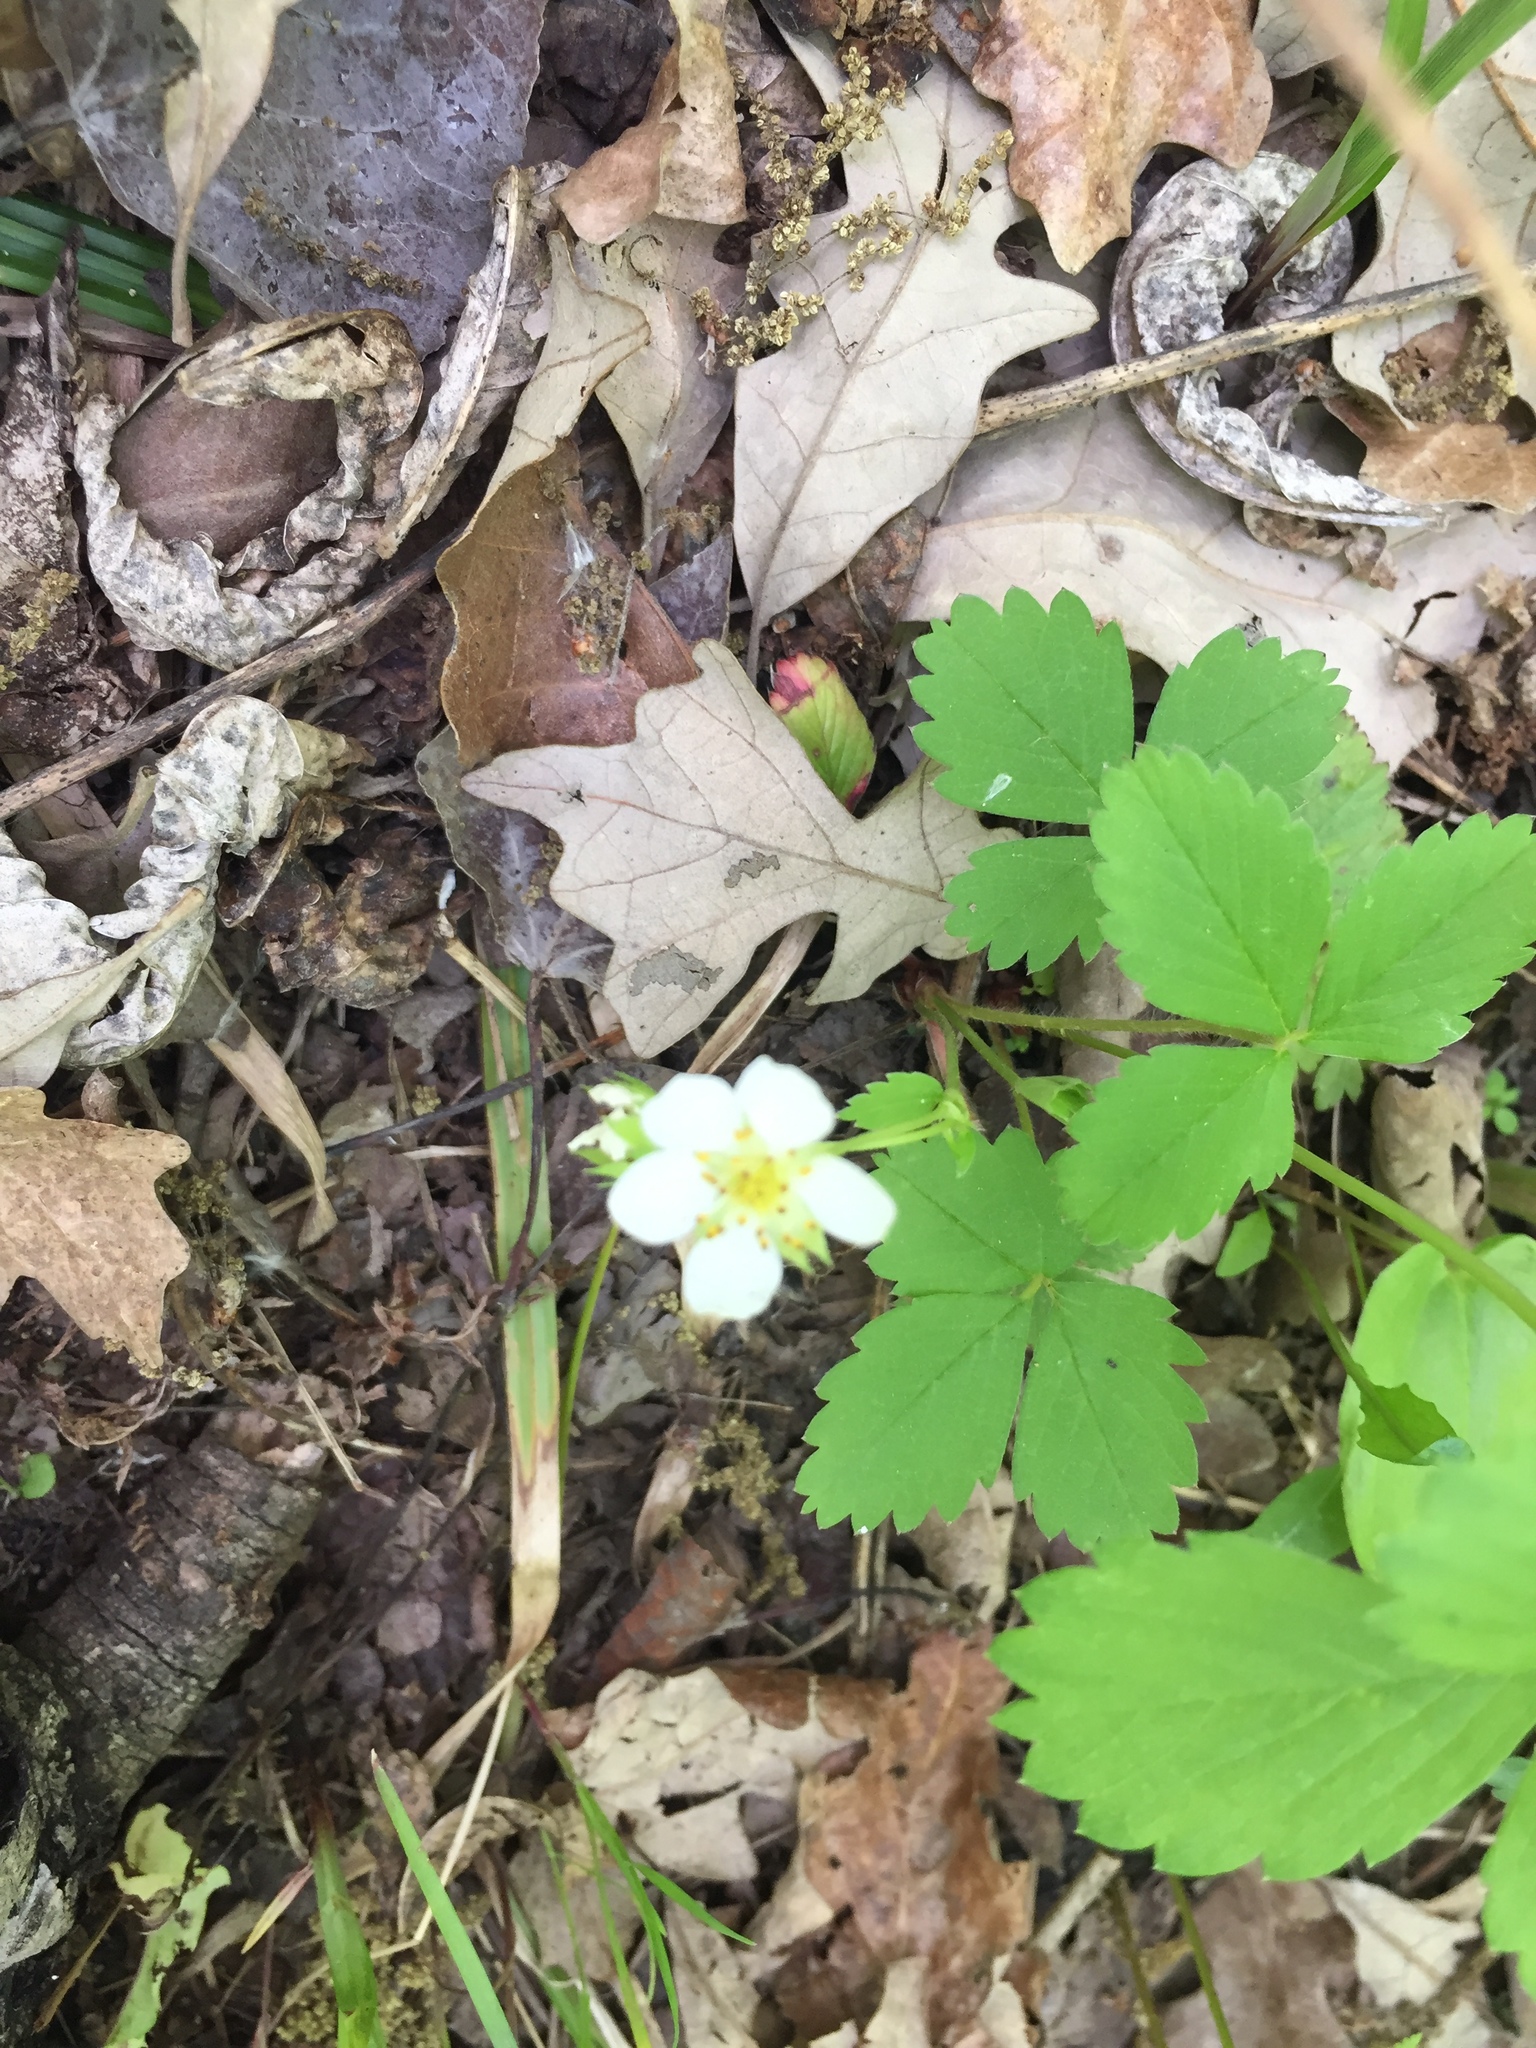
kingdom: Plantae
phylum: Tracheophyta
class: Magnoliopsida
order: Rosales
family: Rosaceae
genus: Fragaria
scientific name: Fragaria virginiana
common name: Thickleaved wild strawberry
